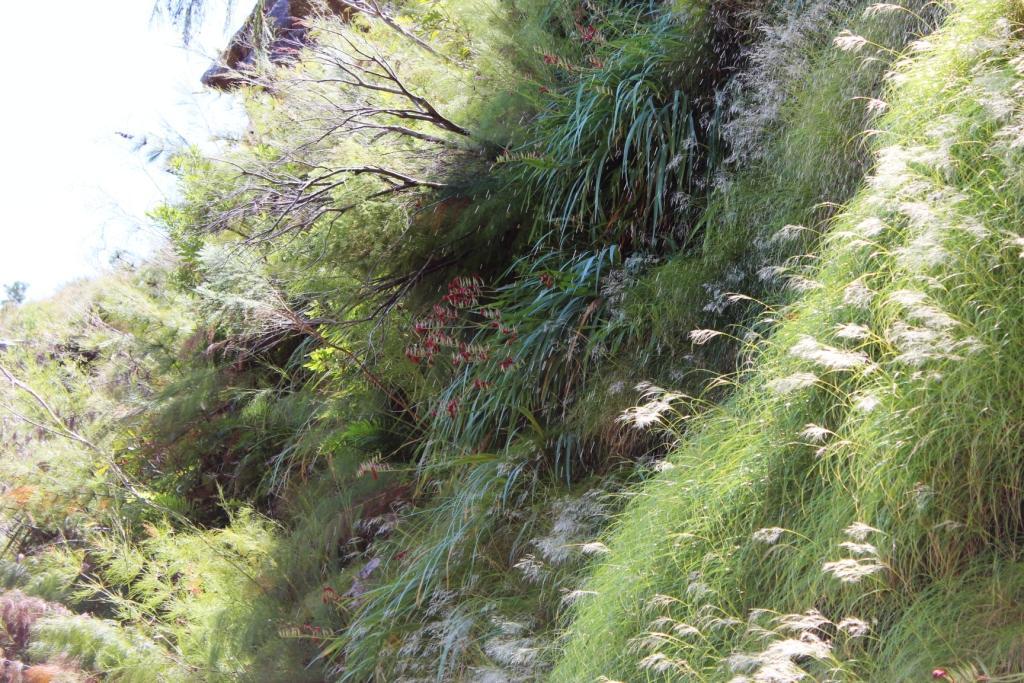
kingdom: Plantae
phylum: Tracheophyta
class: Liliopsida
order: Asparagales
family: Iridaceae
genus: Gladiolus
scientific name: Gladiolus cardinalis
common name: New year-lily
